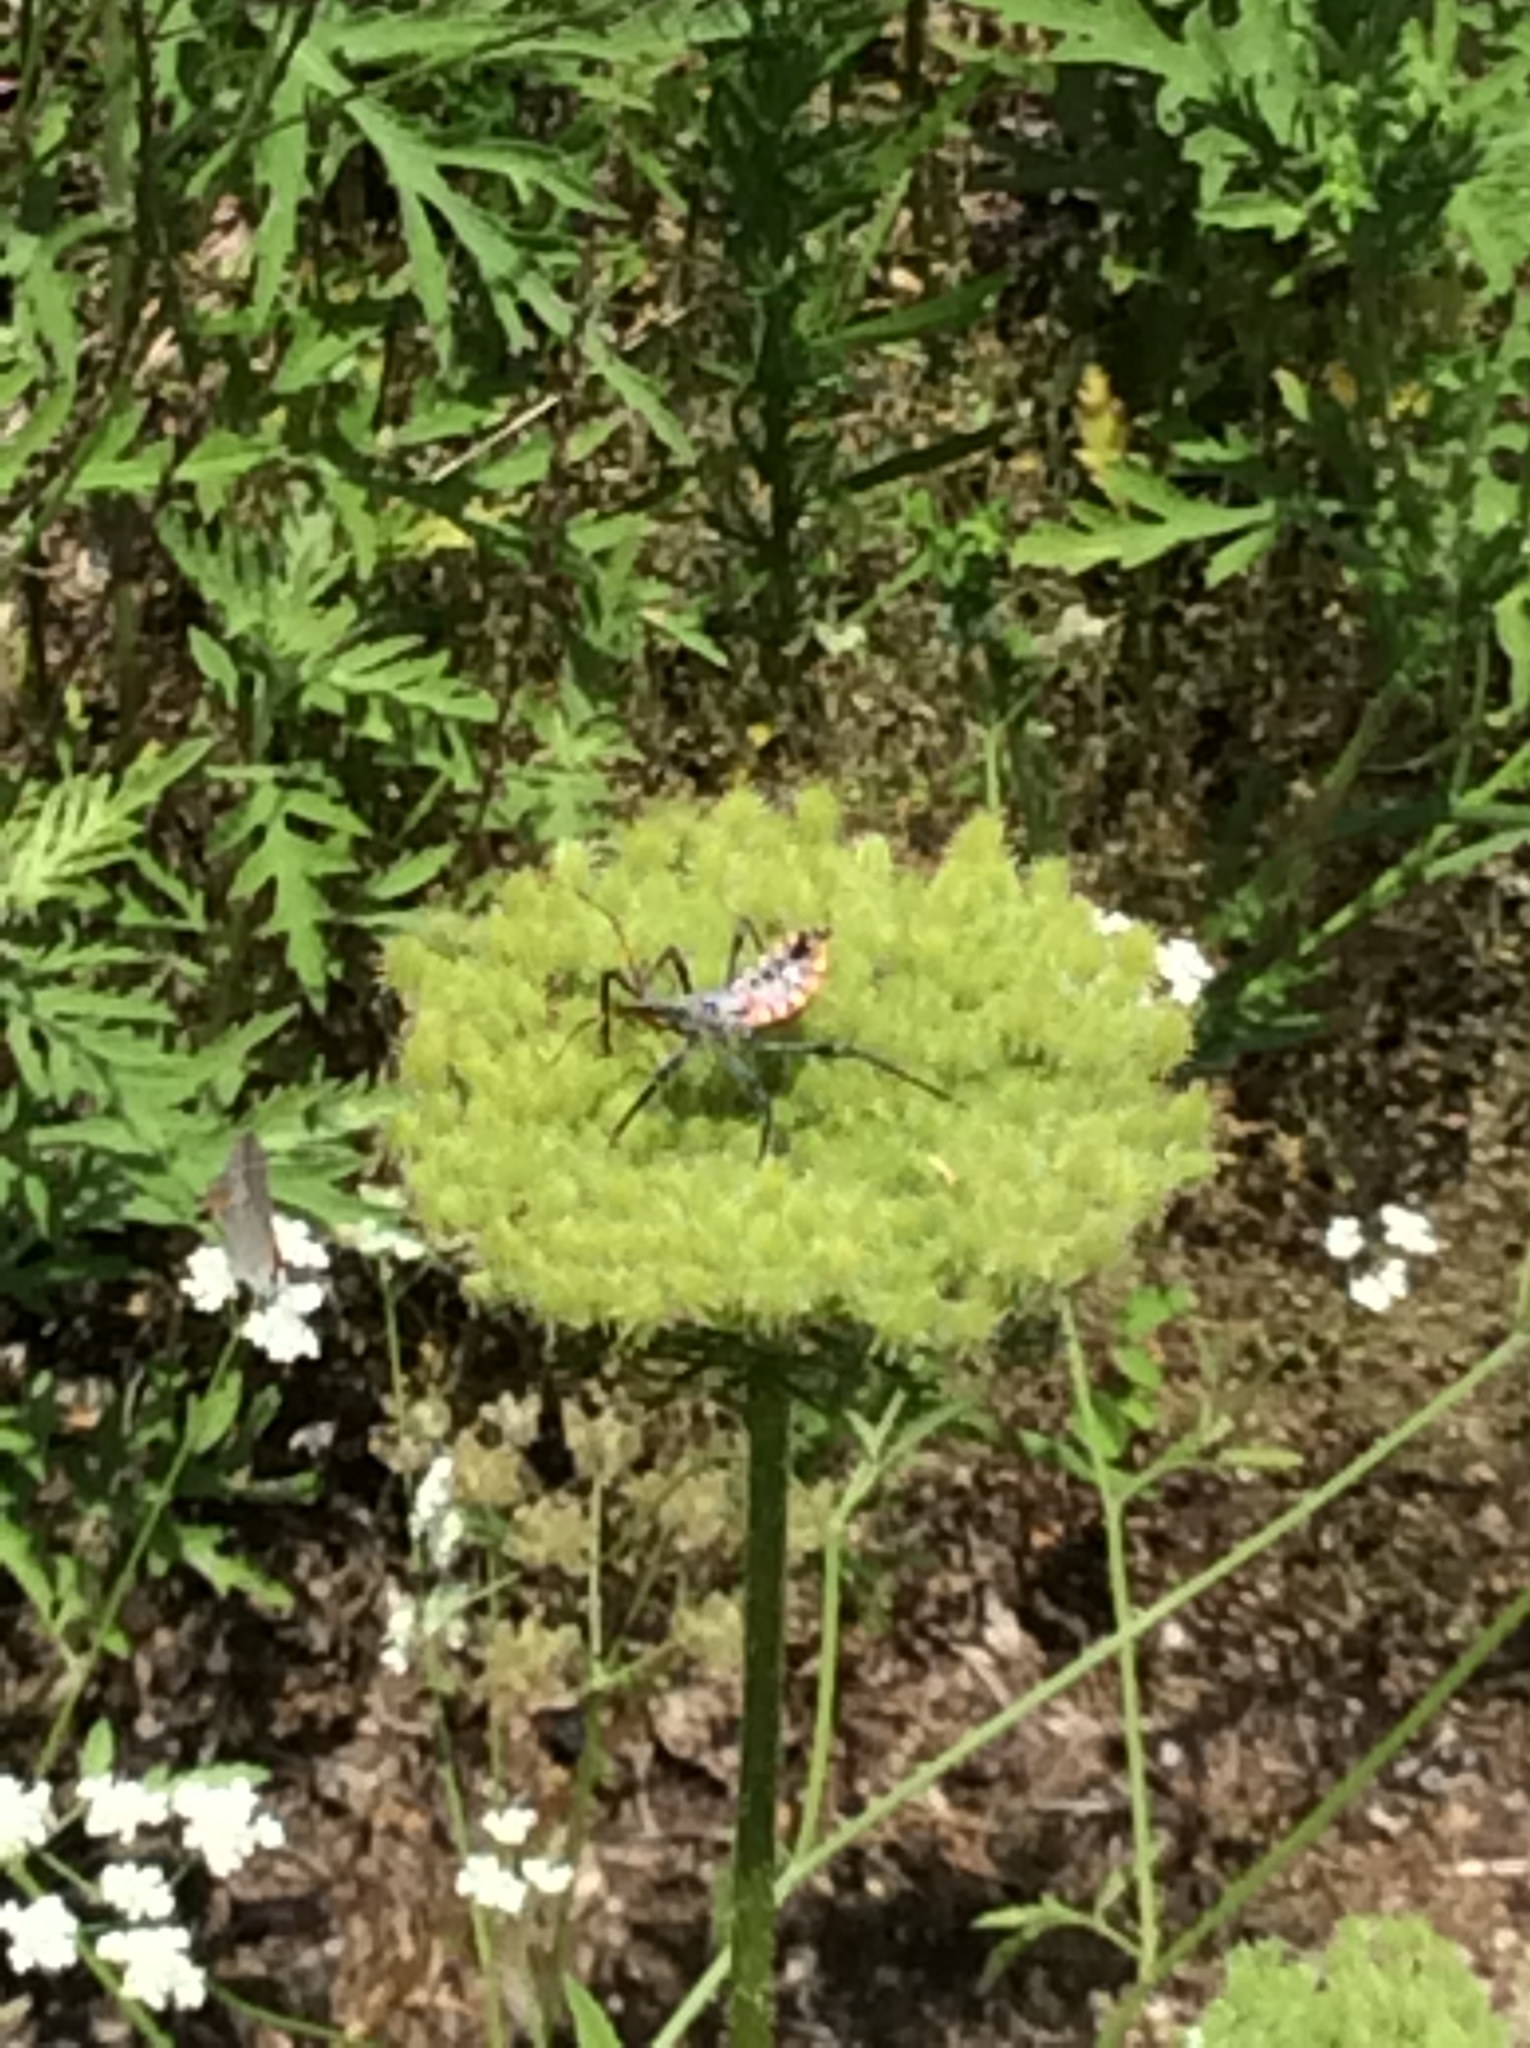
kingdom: Animalia
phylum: Arthropoda
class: Insecta
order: Hemiptera
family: Reduviidae
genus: Arilus
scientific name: Arilus cristatus
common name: North american wheel bug
